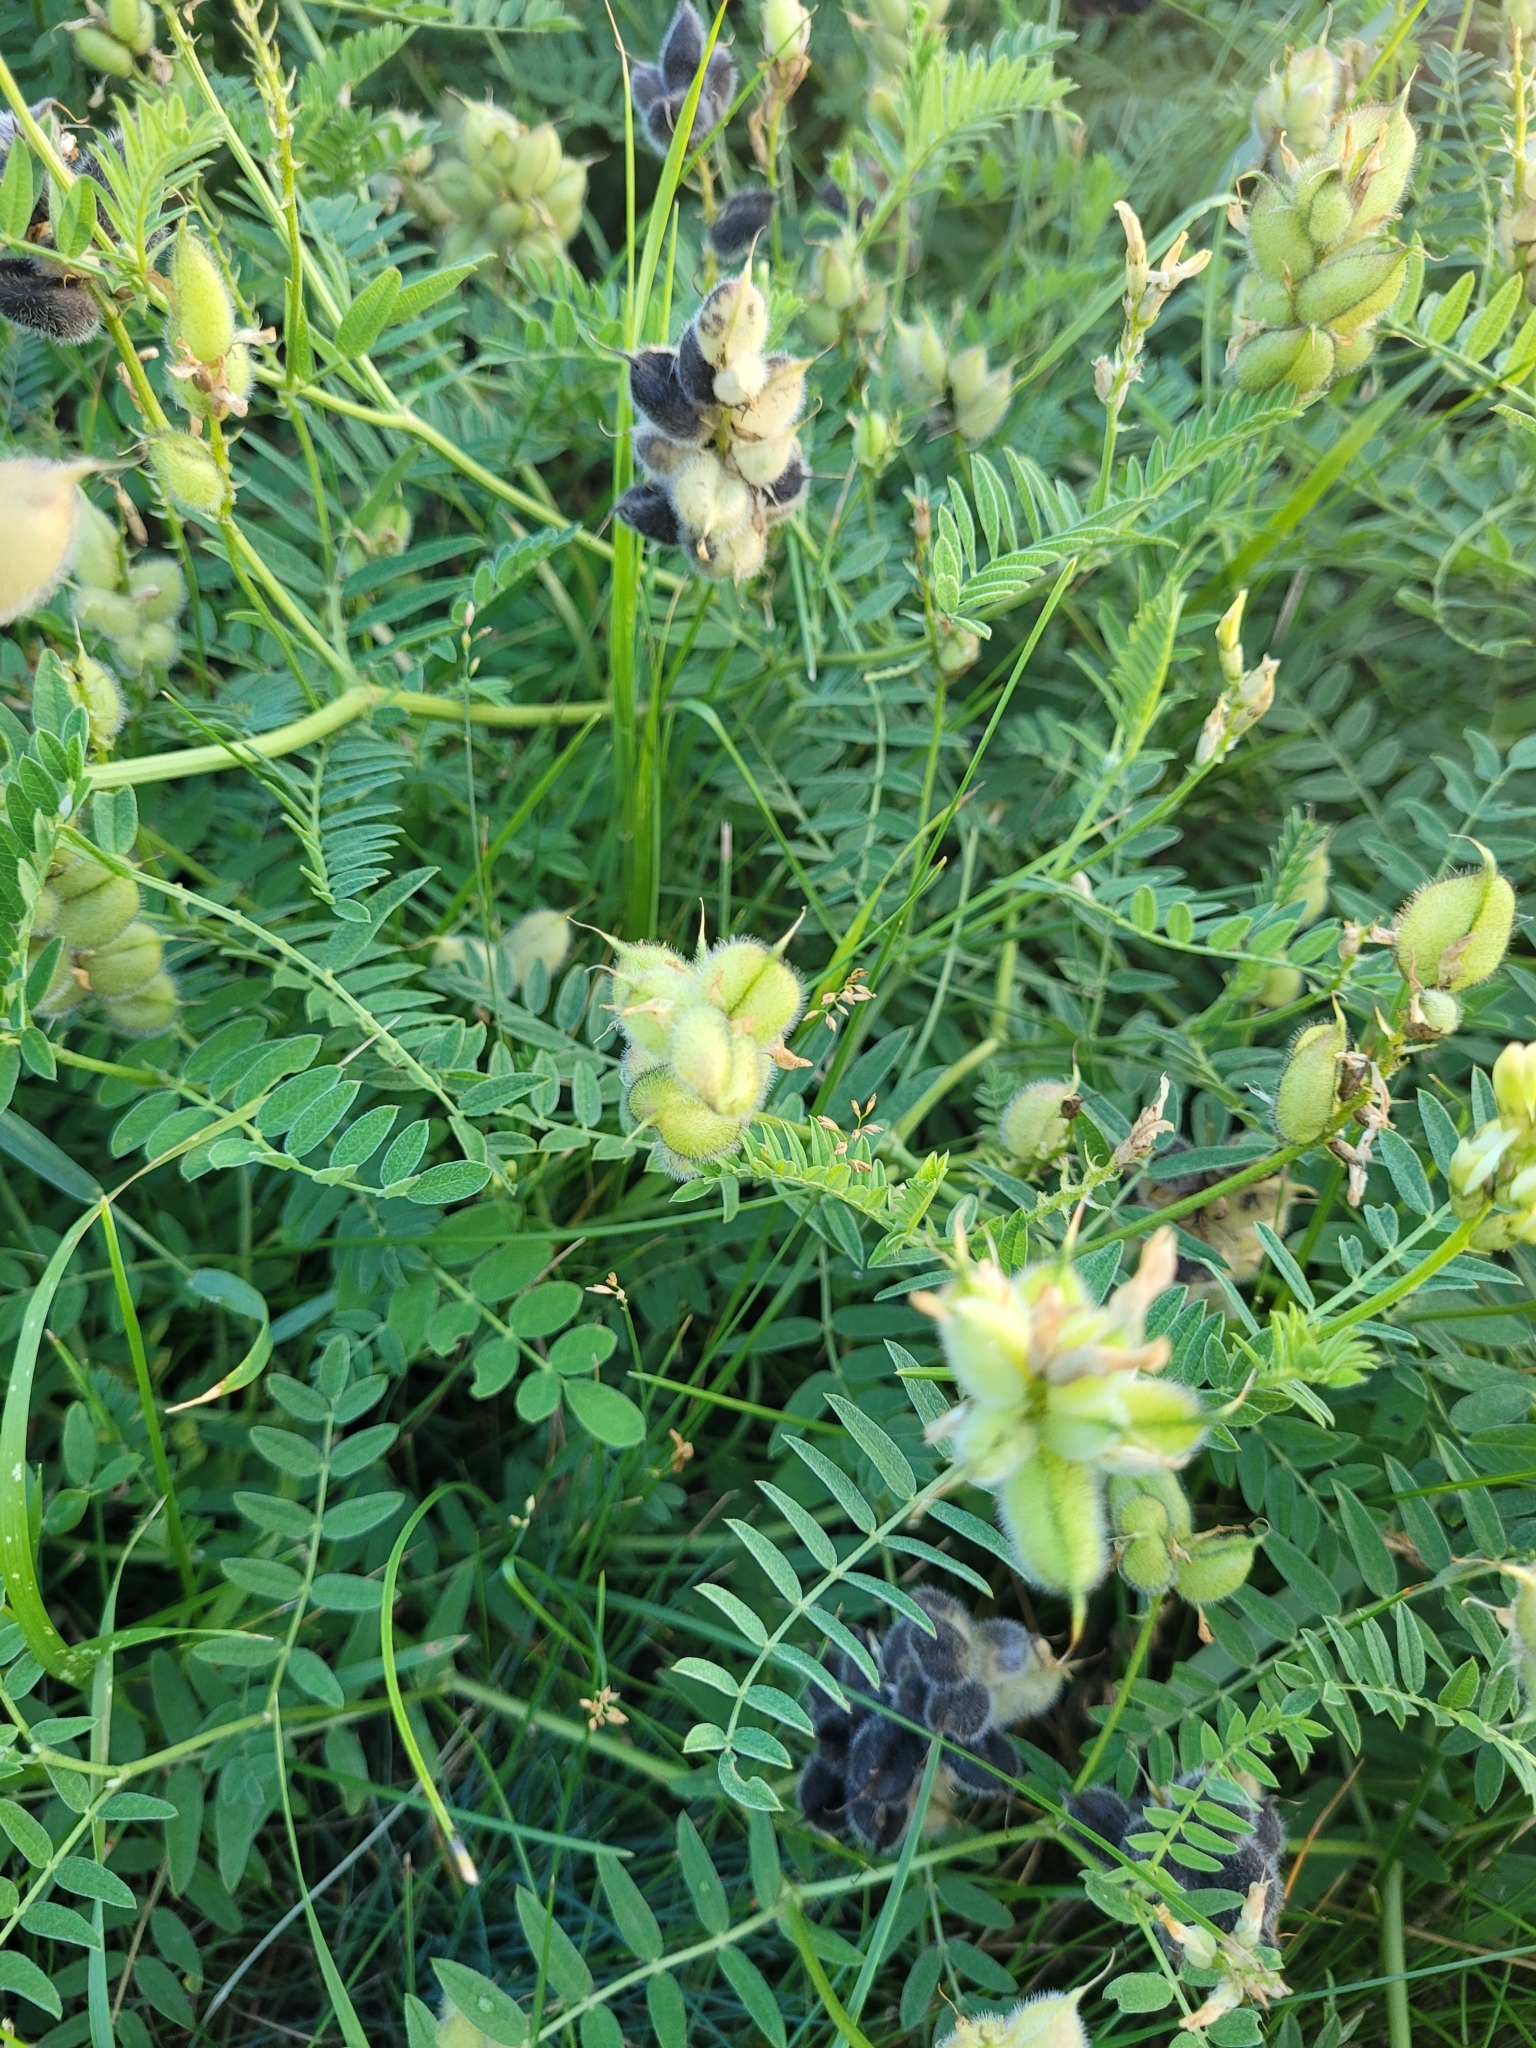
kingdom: Plantae
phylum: Tracheophyta
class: Magnoliopsida
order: Fabales
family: Fabaceae
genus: Astragalus
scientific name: Astragalus cicer
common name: Chick-pea milk-vetch
